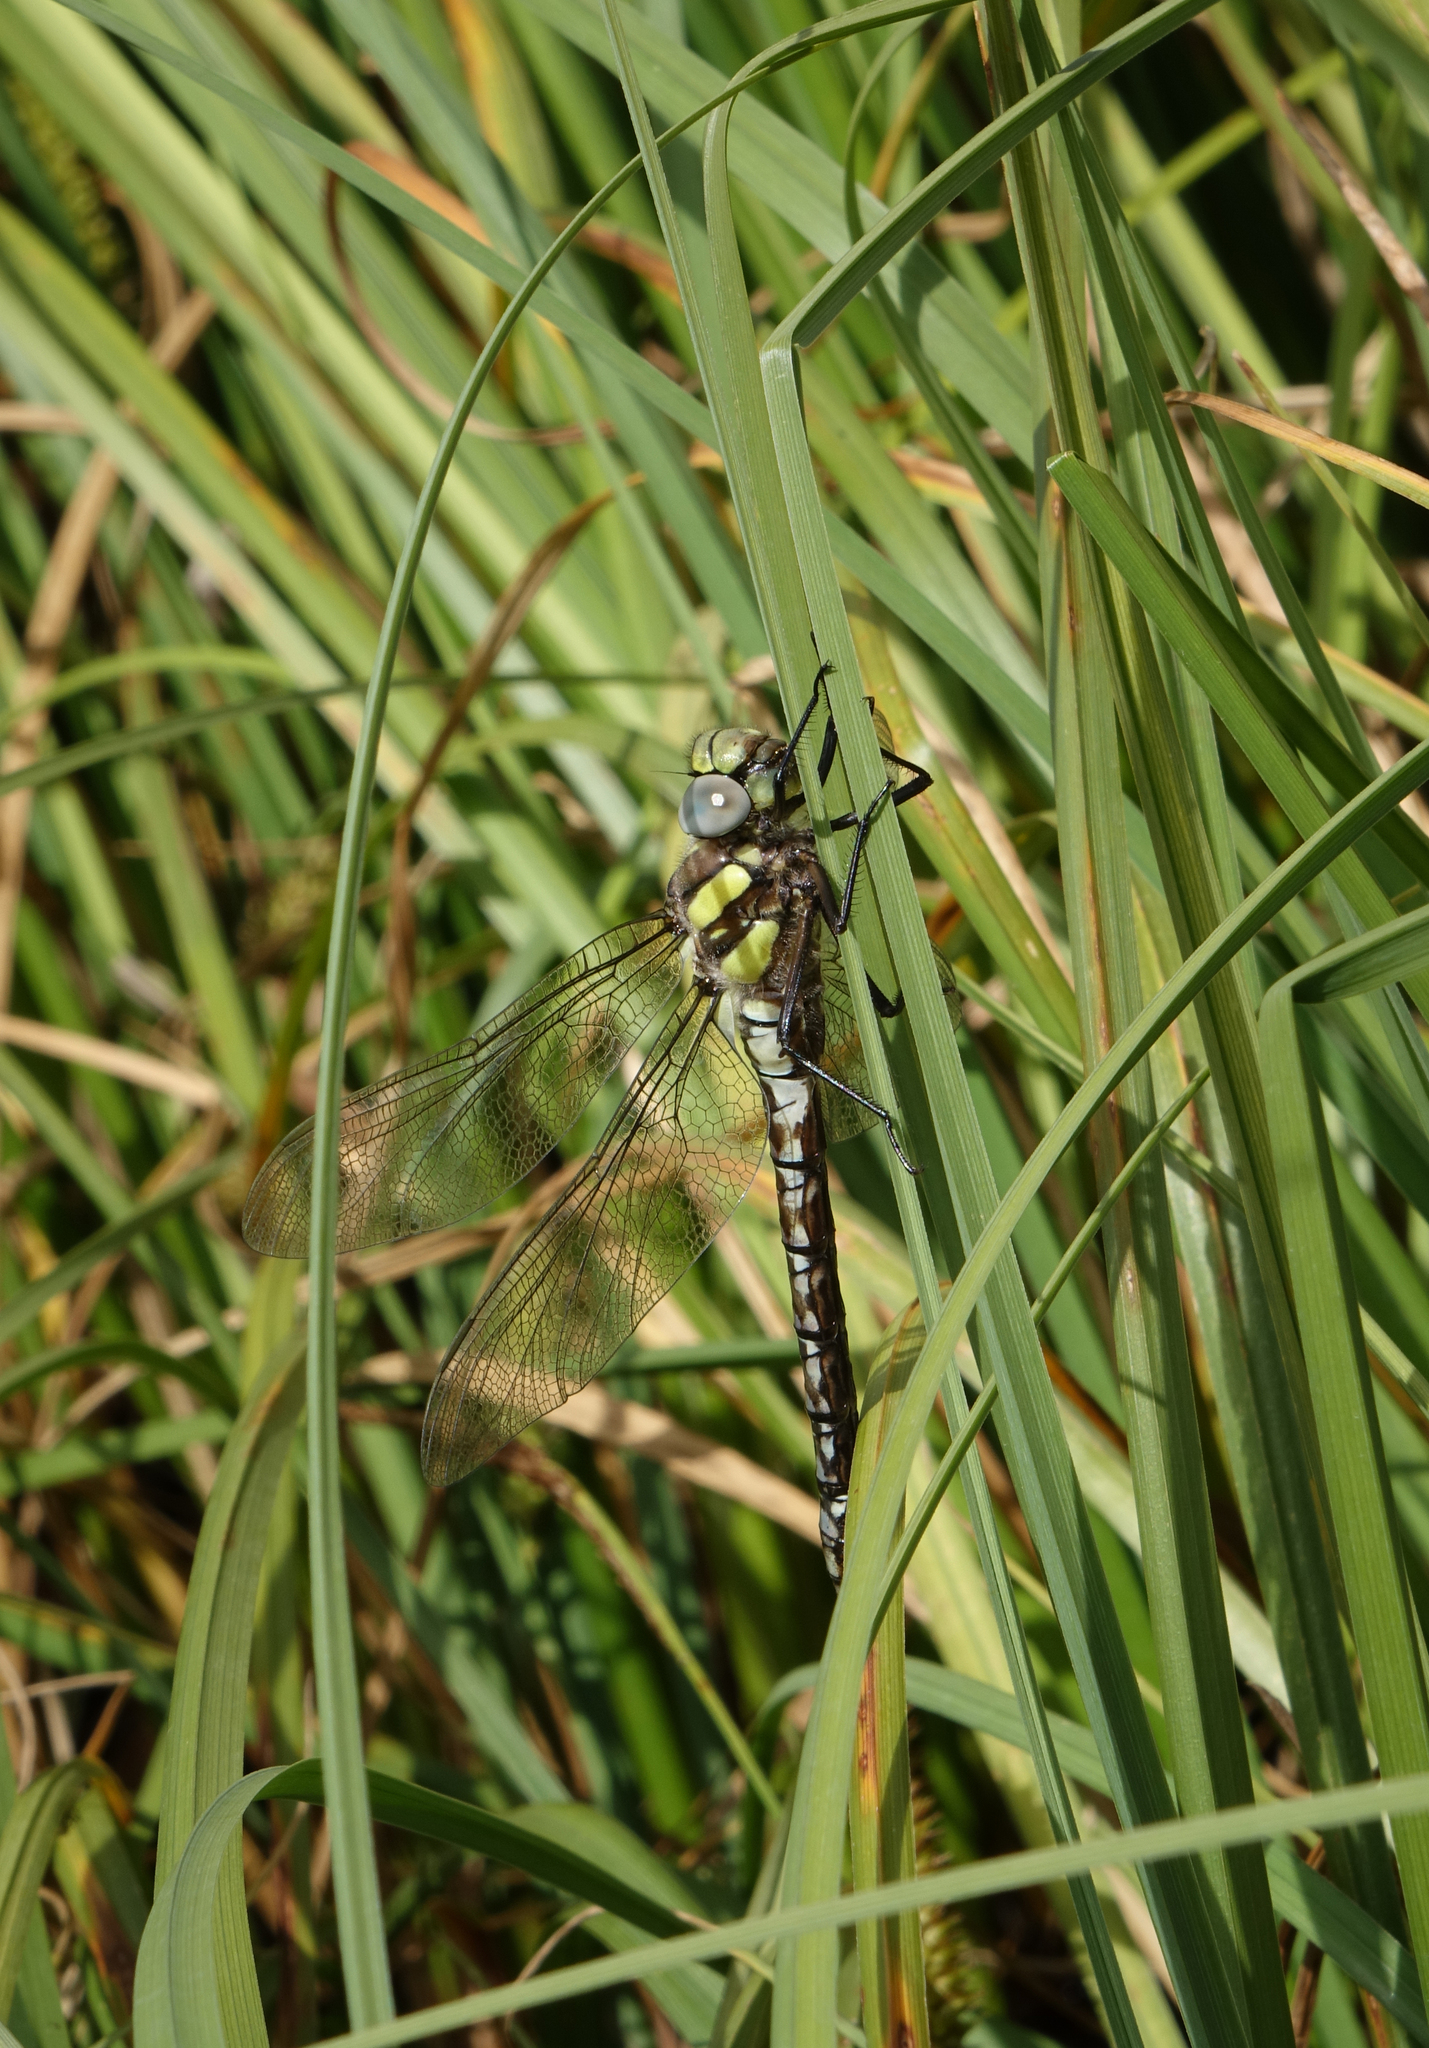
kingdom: Animalia
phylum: Arthropoda
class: Insecta
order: Odonata
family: Aeshnidae
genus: Aeshna
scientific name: Aeshna juncea
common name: Moorland hawker
